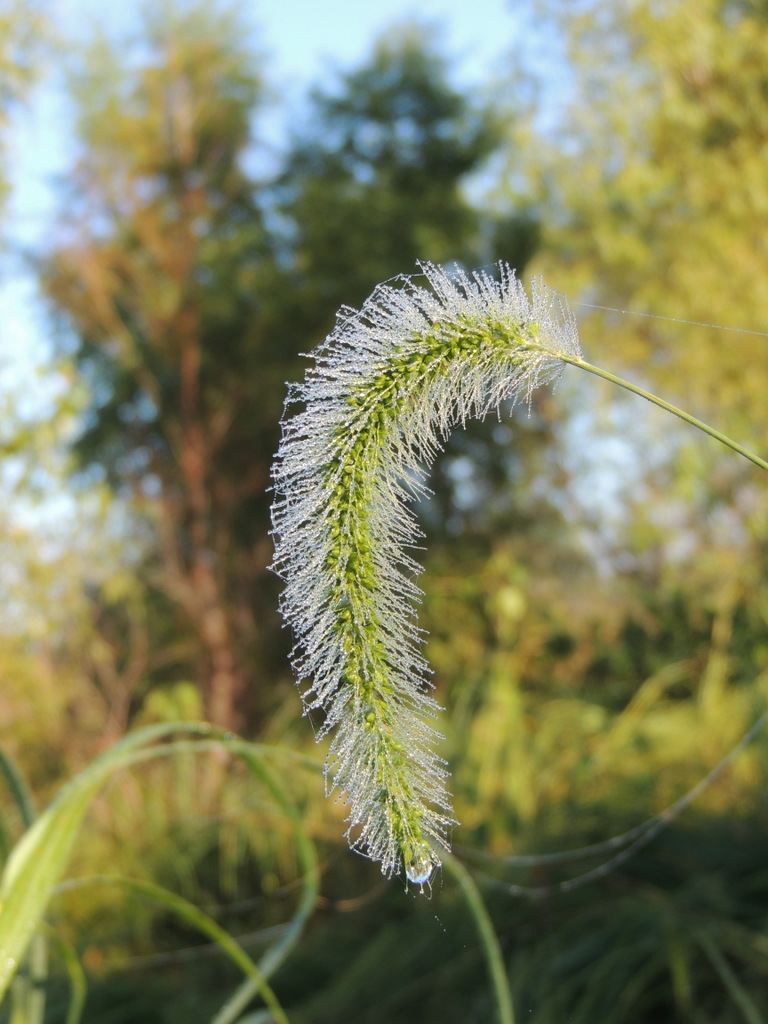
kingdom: Plantae
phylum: Tracheophyta
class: Liliopsida
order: Poales
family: Poaceae
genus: Setaria
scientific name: Setaria faberi
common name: Nodding bristle-grass
